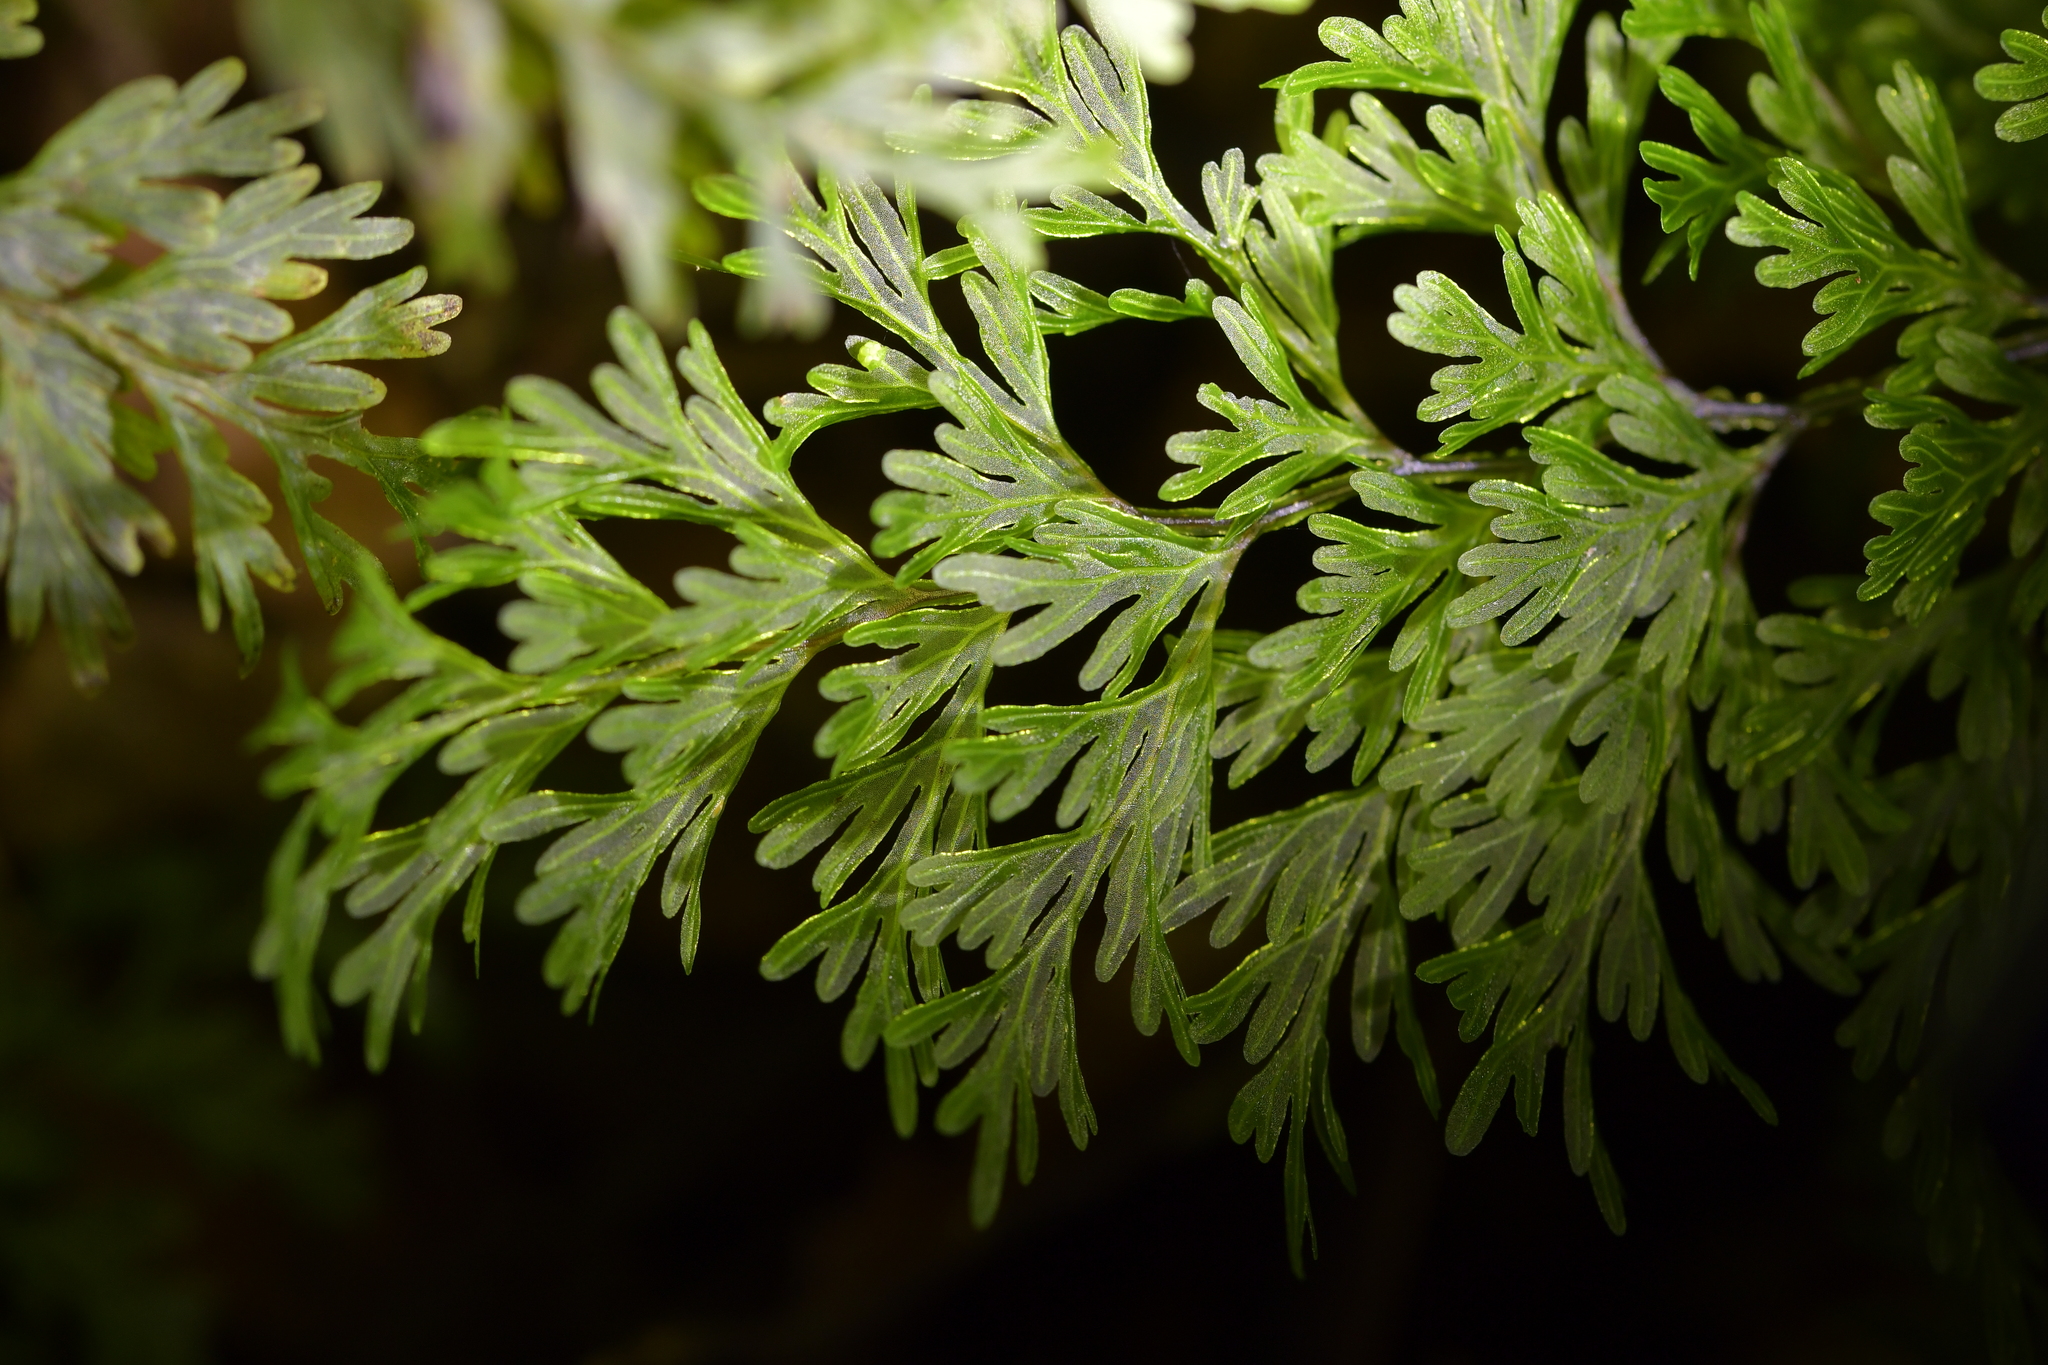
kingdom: Plantae
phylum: Tracheophyta
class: Polypodiopsida
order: Hymenophyllales
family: Hymenophyllaceae
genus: Hymenophyllum
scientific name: Hymenophyllum demissum
